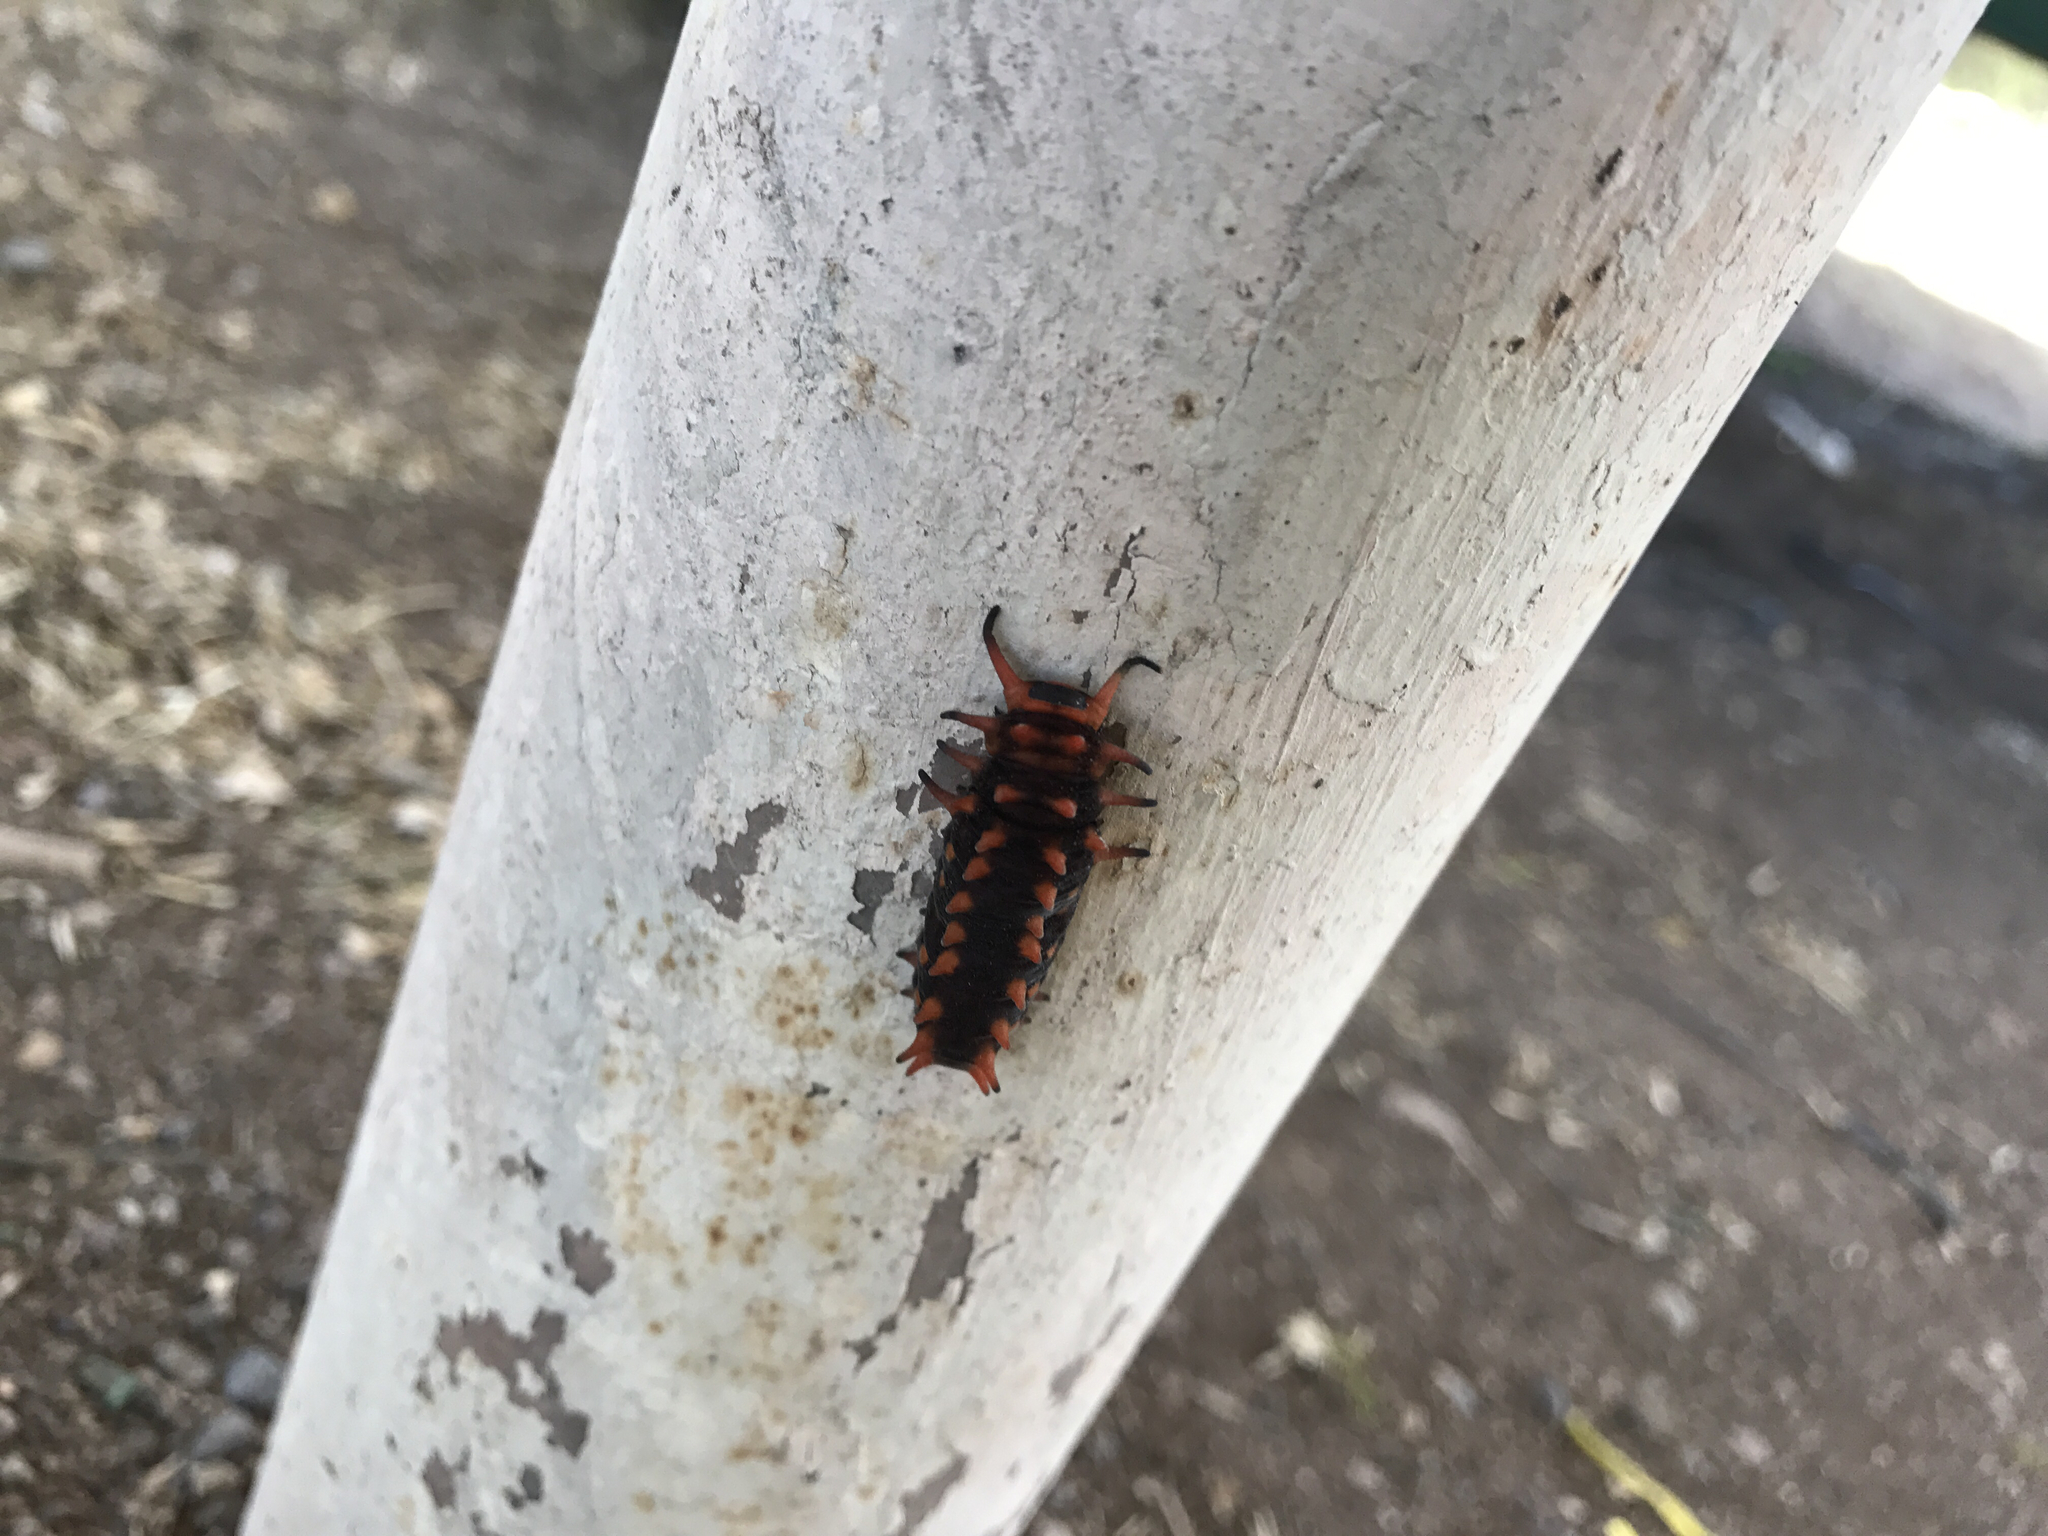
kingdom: Animalia
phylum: Arthropoda
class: Insecta
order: Lepidoptera
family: Papilionidae
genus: Battus
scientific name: Battus philenor
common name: Pipevine swallowtail
